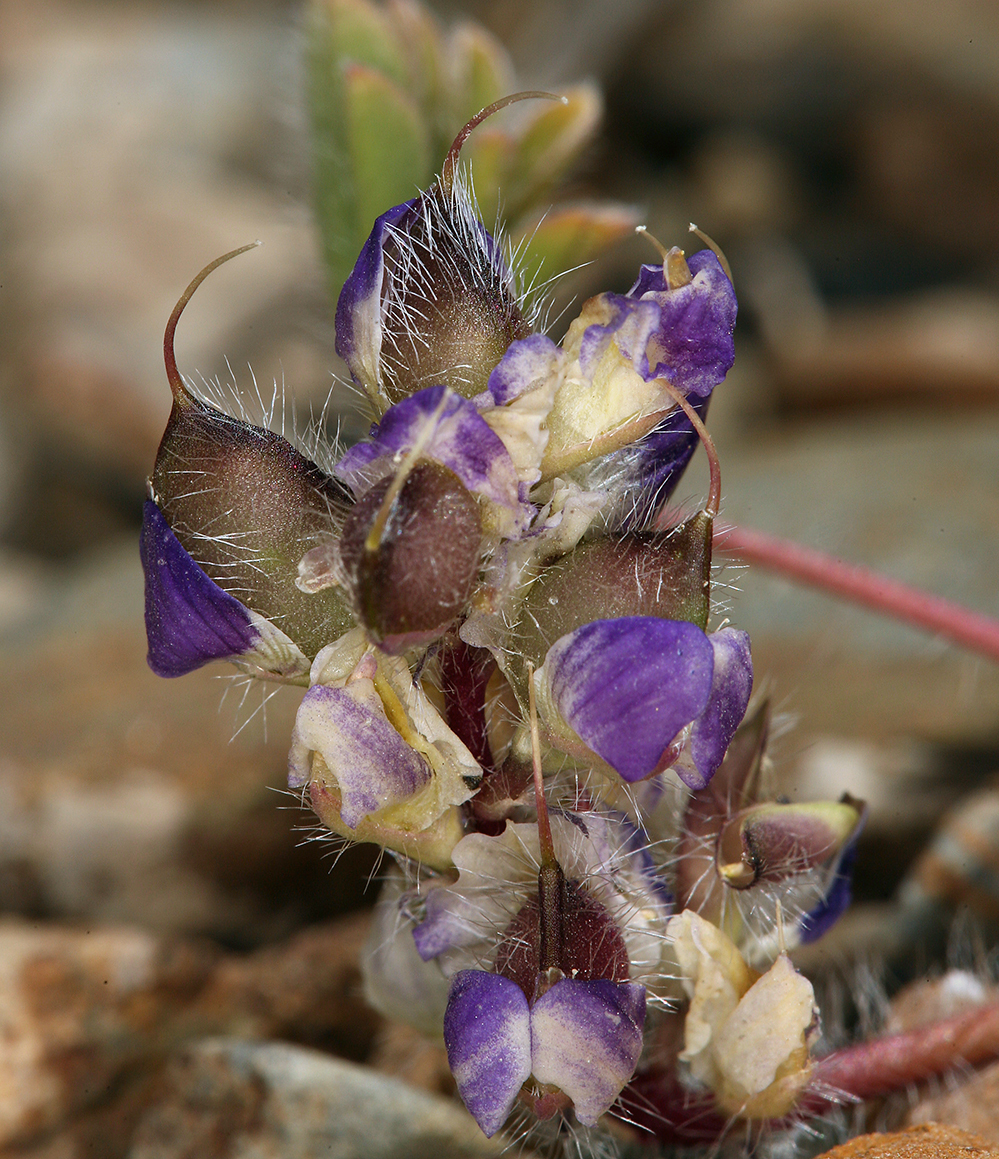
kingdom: Plantae
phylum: Tracheophyta
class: Magnoliopsida
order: Fabales
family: Fabaceae
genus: Lupinus
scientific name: Lupinus flavoculatus
